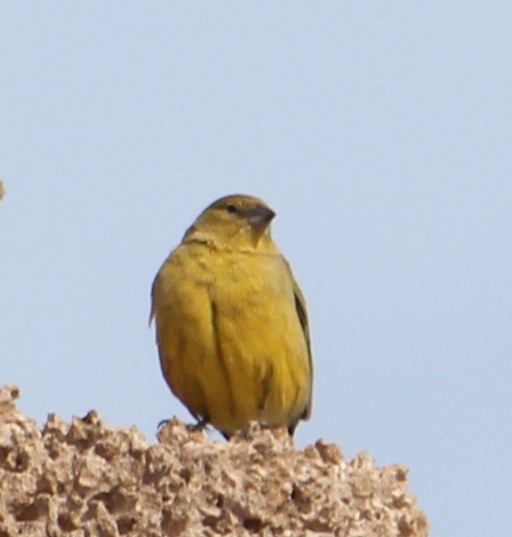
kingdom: Animalia
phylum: Chordata
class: Aves
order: Passeriformes
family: Thraupidae
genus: Sicalis
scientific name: Sicalis olivascens
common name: Greenish yellow finch
